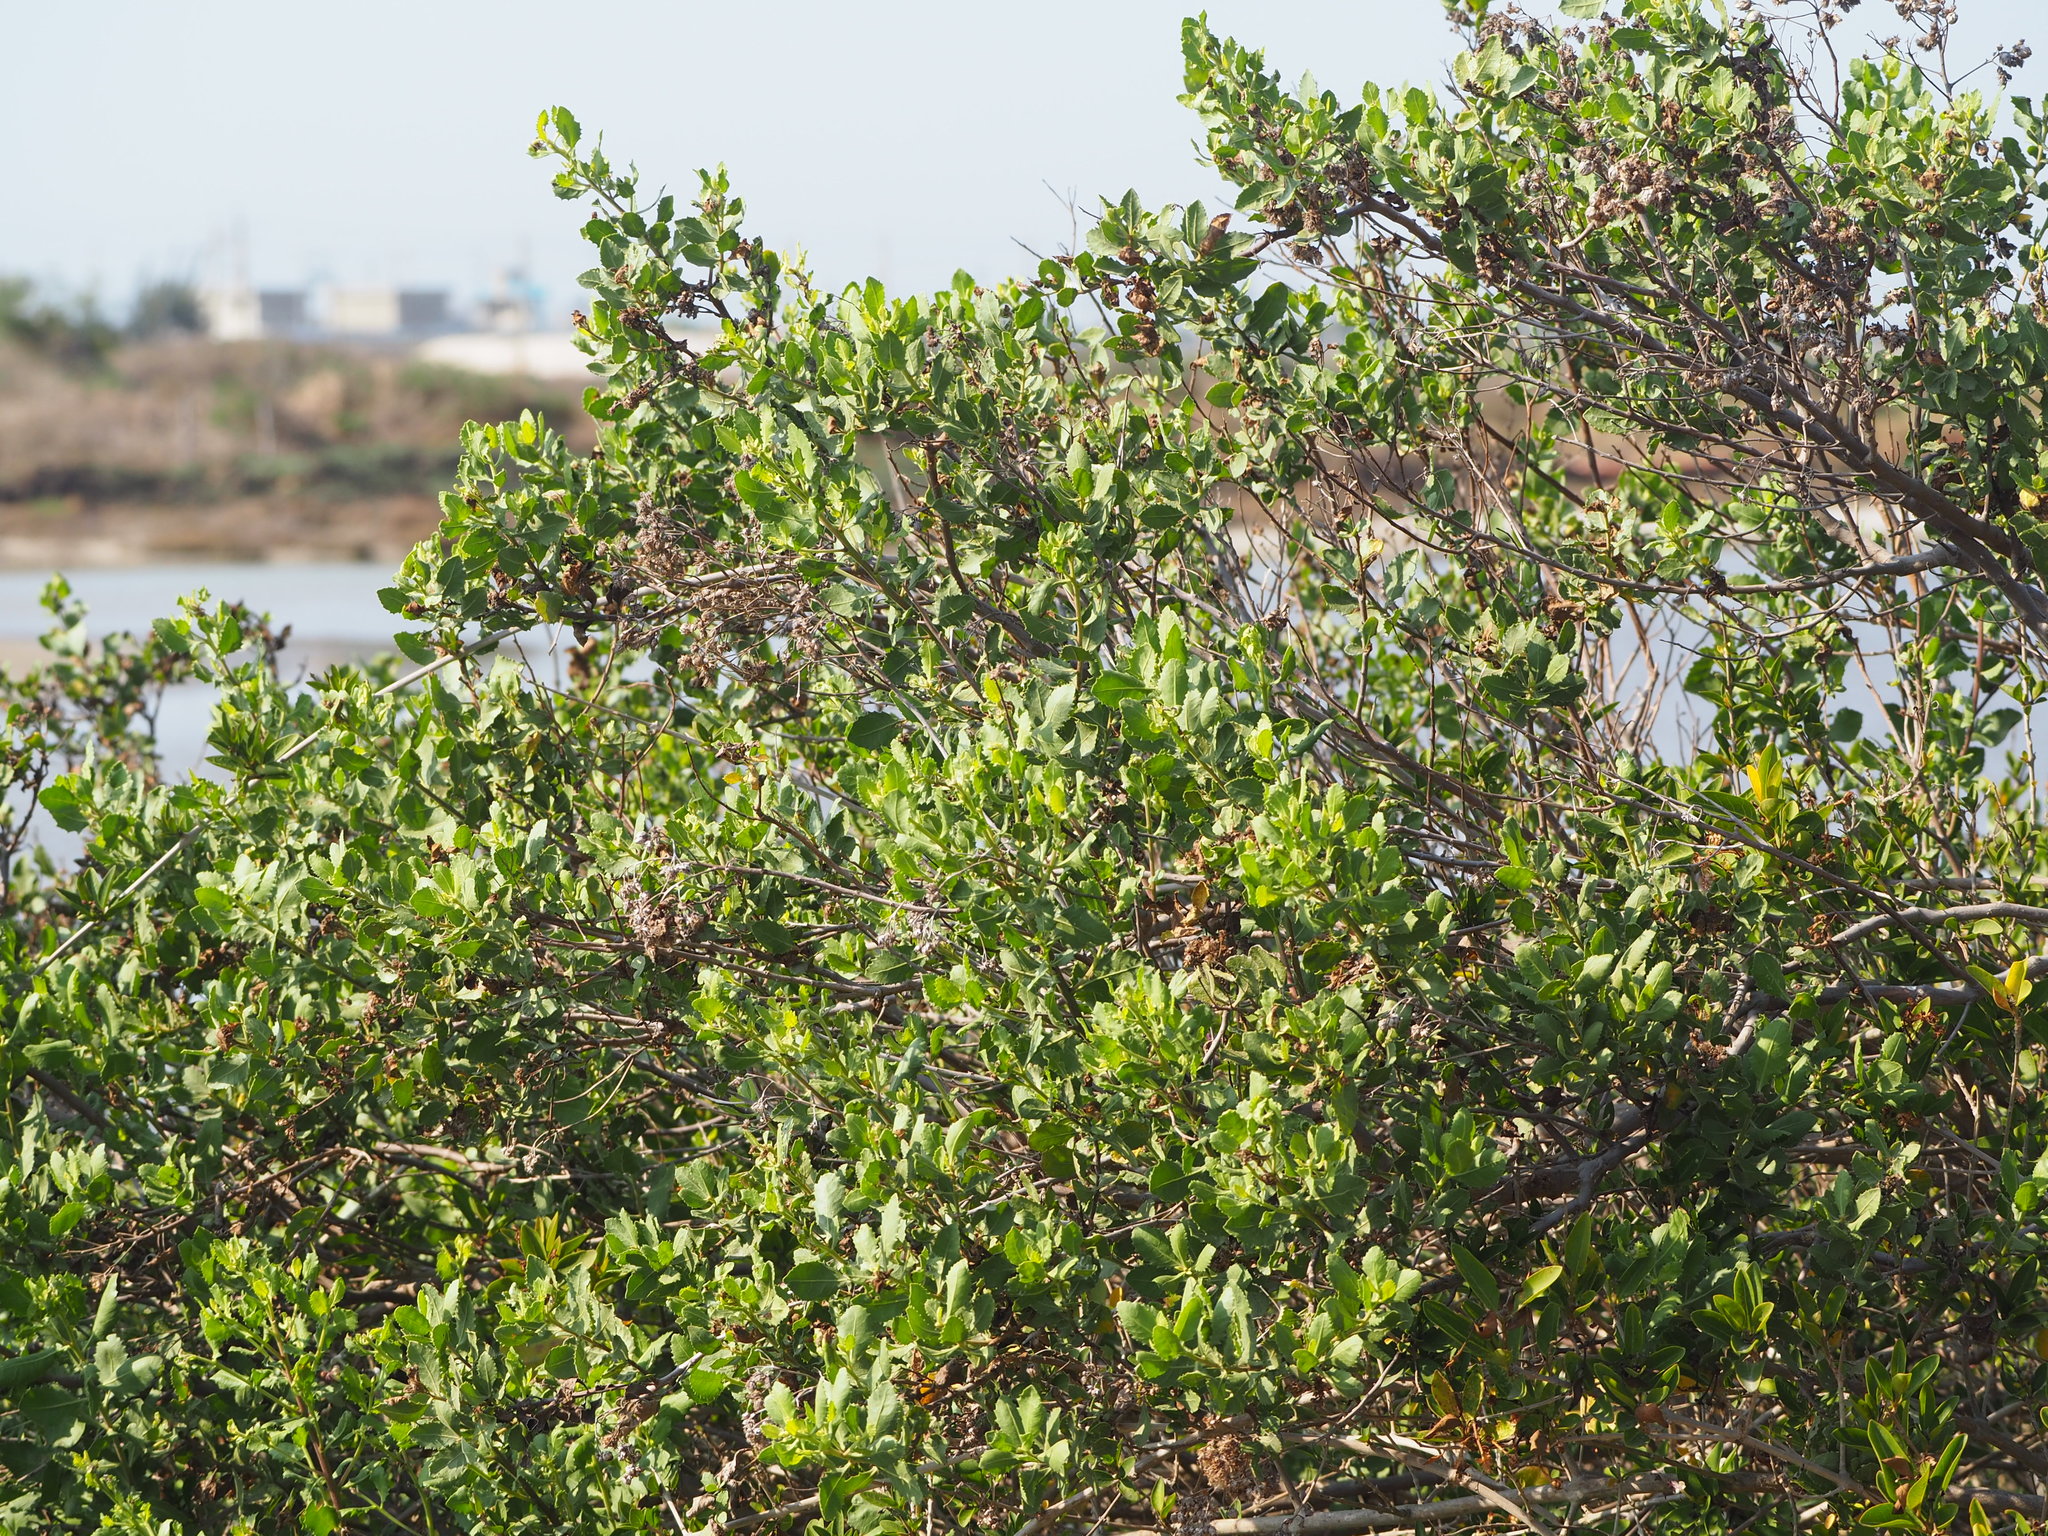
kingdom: Plantae
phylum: Tracheophyta
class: Magnoliopsida
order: Asterales
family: Asteraceae
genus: Pluchea
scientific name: Pluchea indica
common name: Indian fleabane
